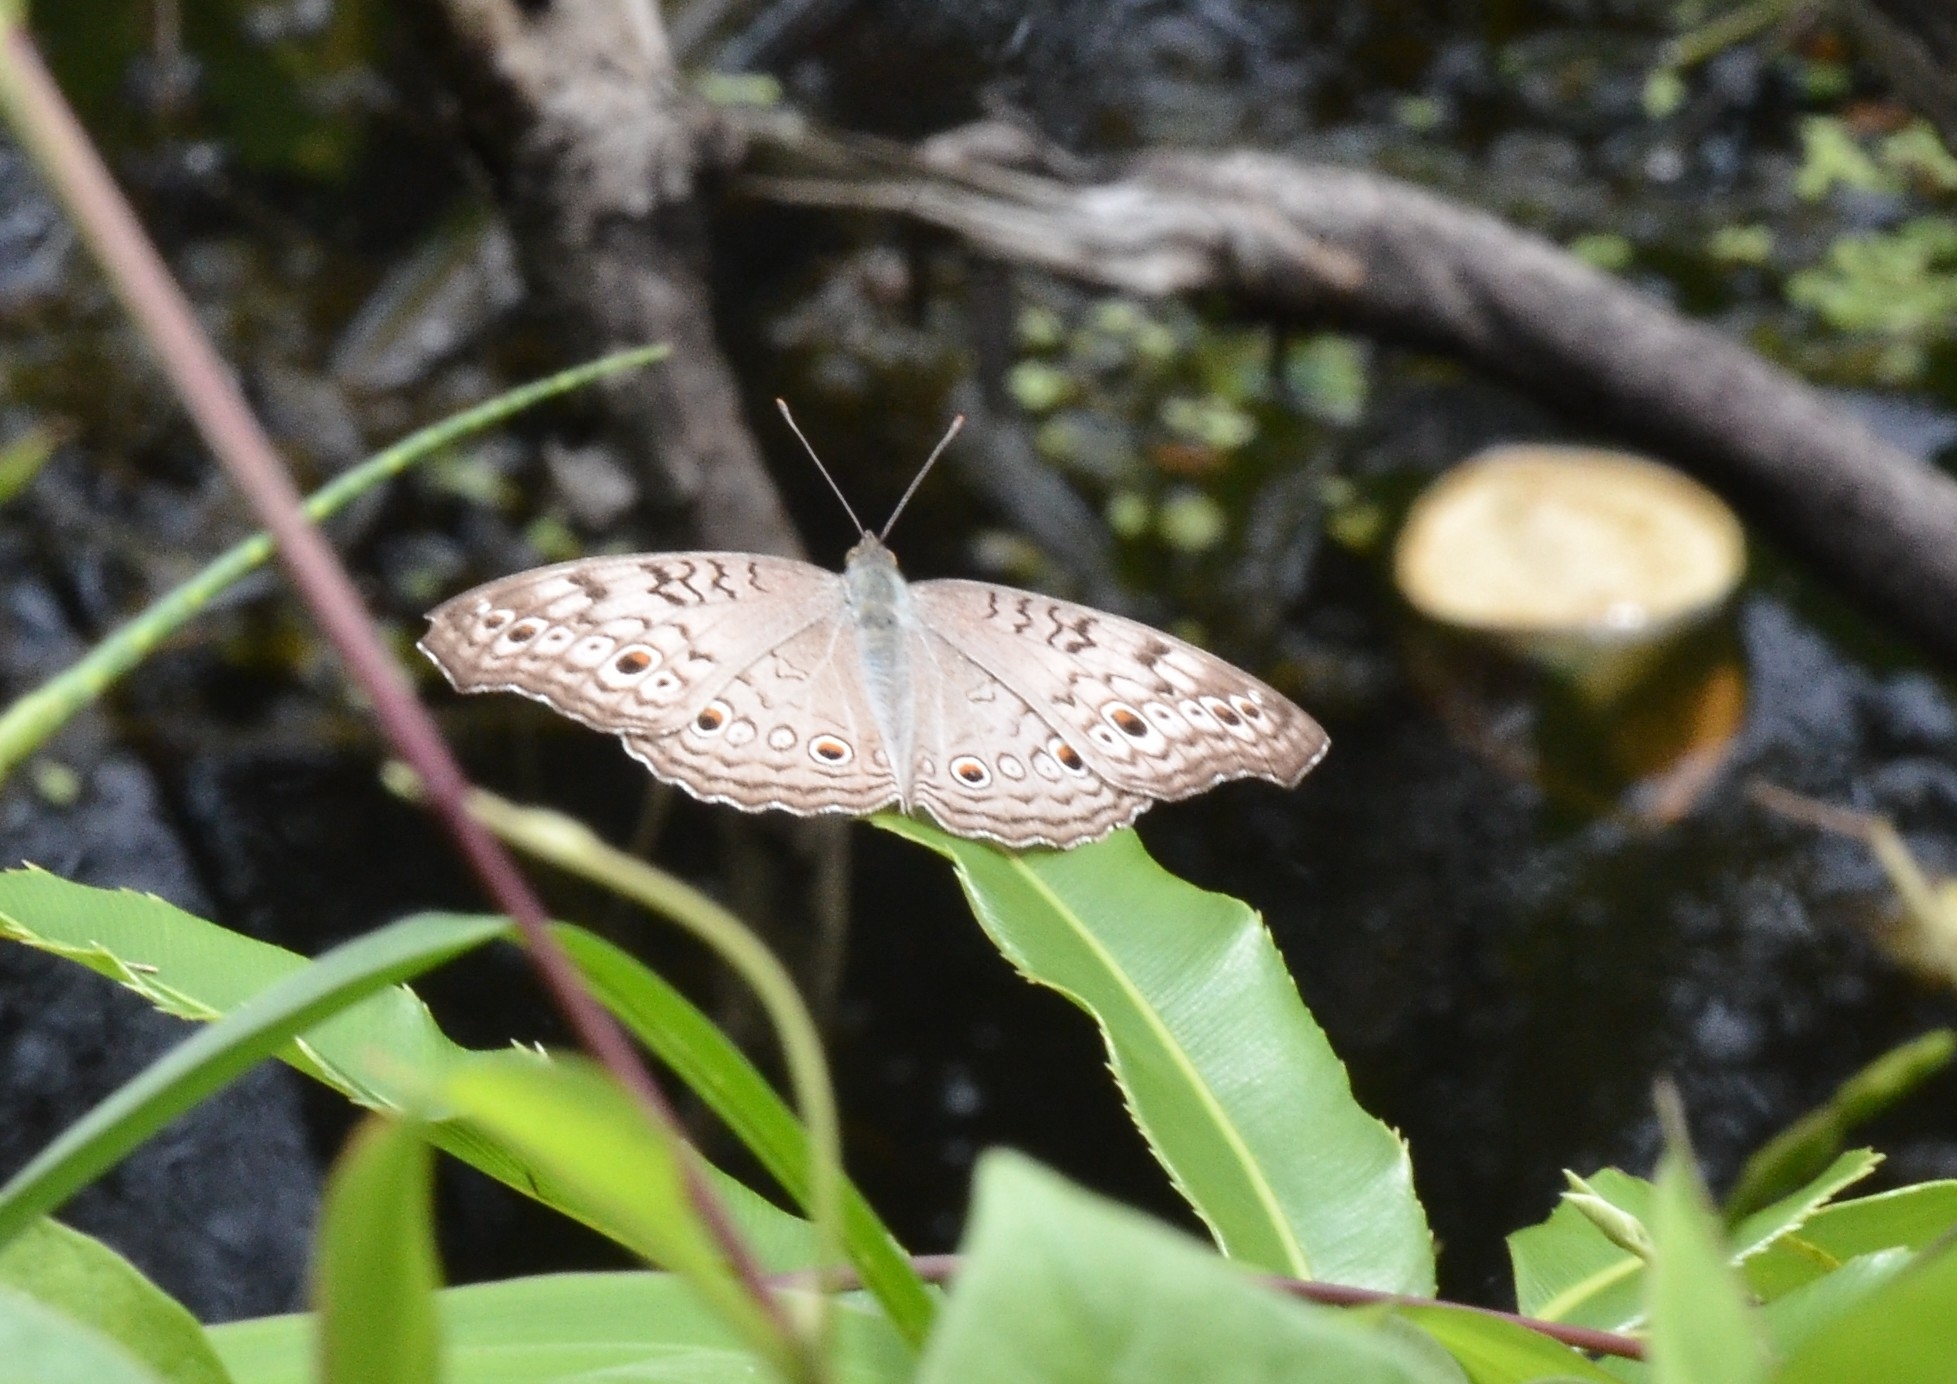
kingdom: Animalia
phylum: Arthropoda
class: Insecta
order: Lepidoptera
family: Nymphalidae
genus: Junonia
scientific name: Junonia atlites
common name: Grey pansy
